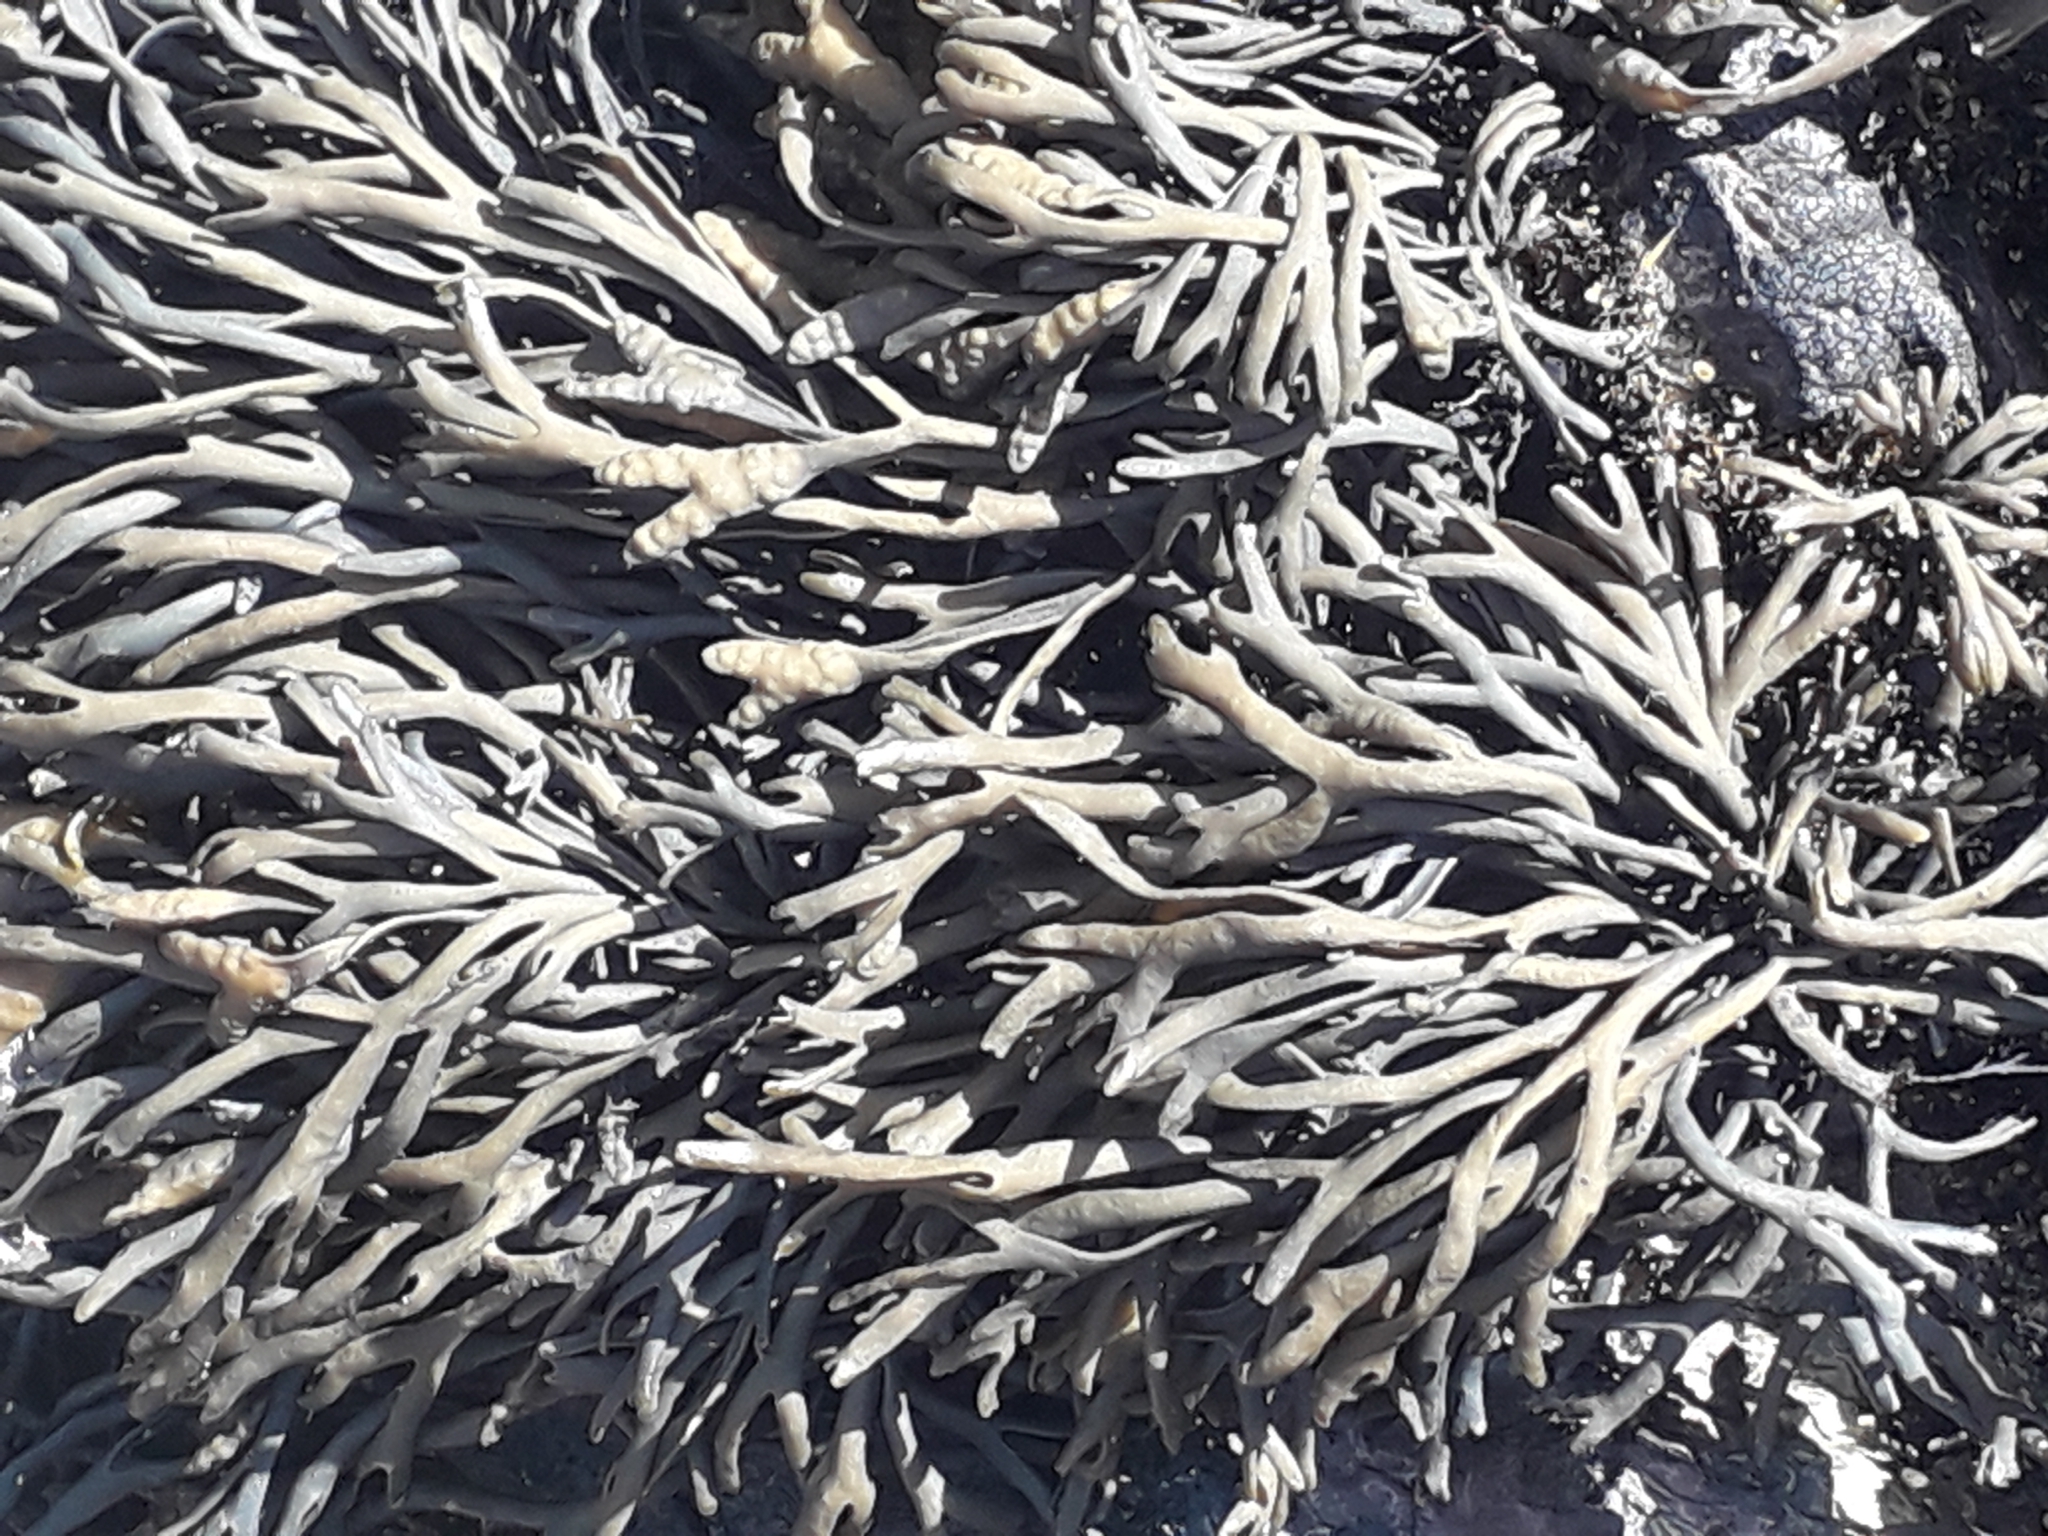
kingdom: Chromista
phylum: Ochrophyta
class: Phaeophyceae
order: Fucales
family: Fucaceae
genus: Pelvetia
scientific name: Pelvetia canaliculata
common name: Channelled wrack
